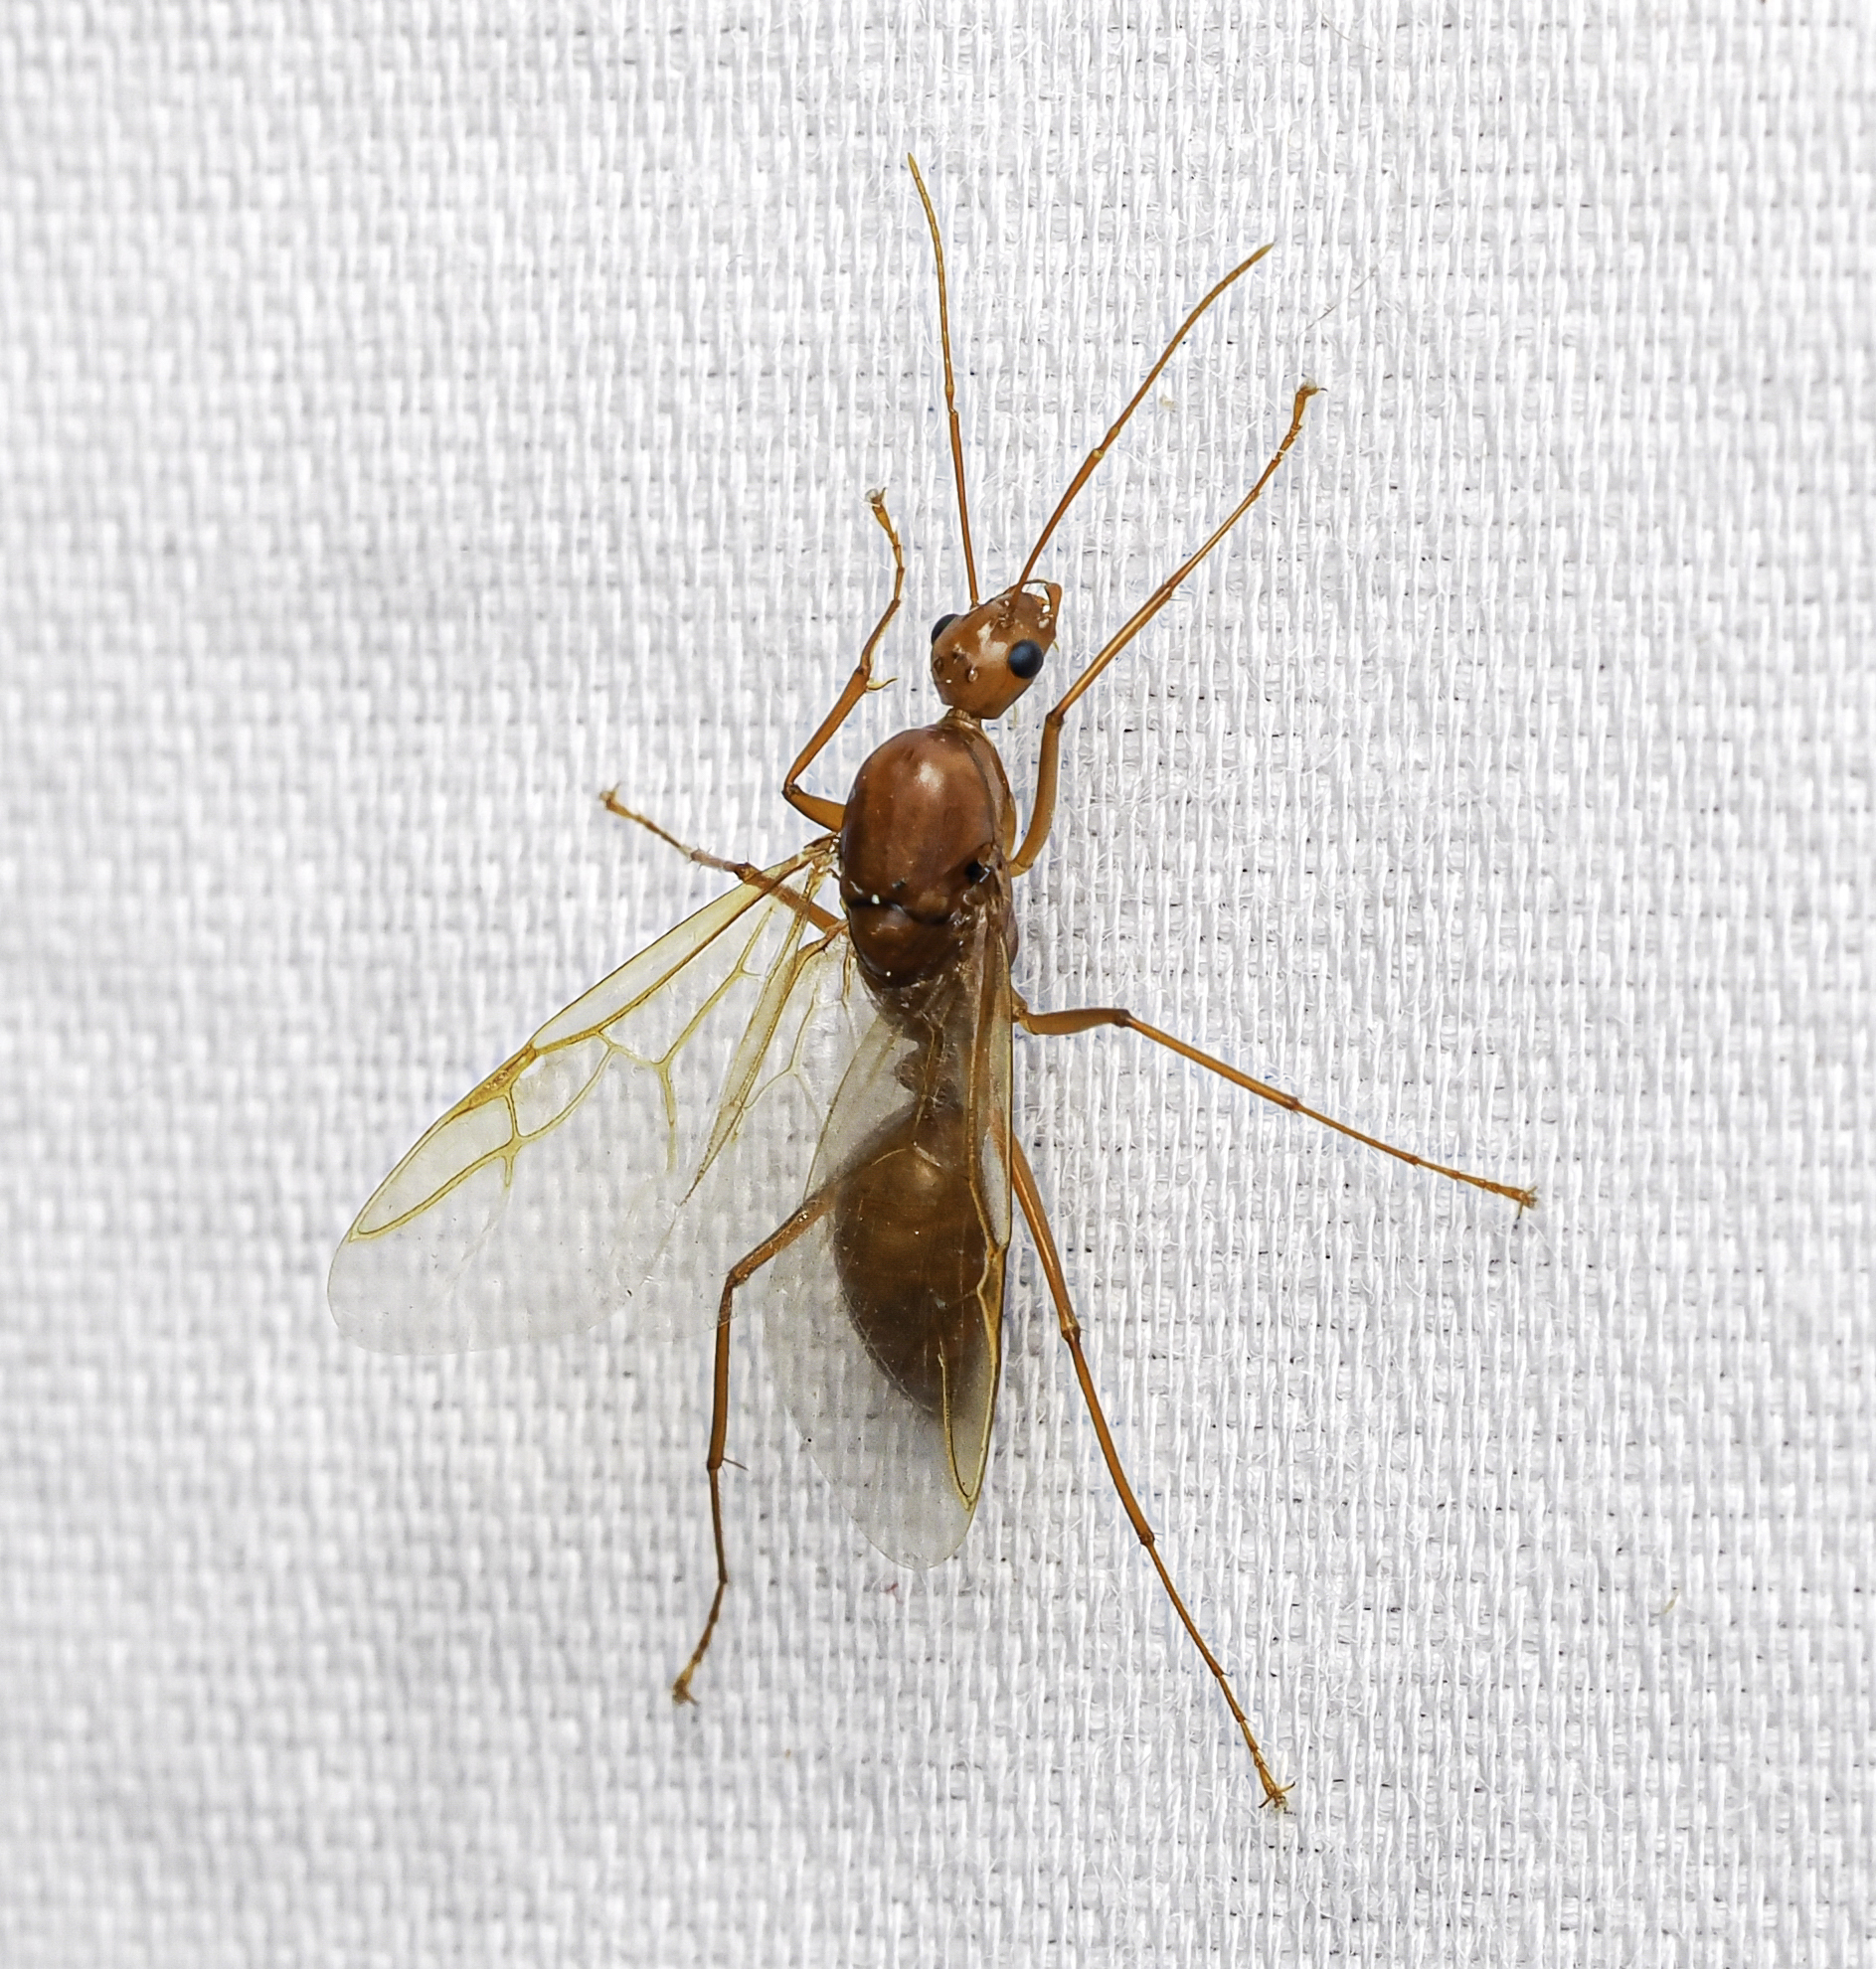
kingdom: Animalia
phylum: Arthropoda
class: Insecta
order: Hymenoptera
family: Formicidae
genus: Camponotus
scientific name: Camponotus castaneus
